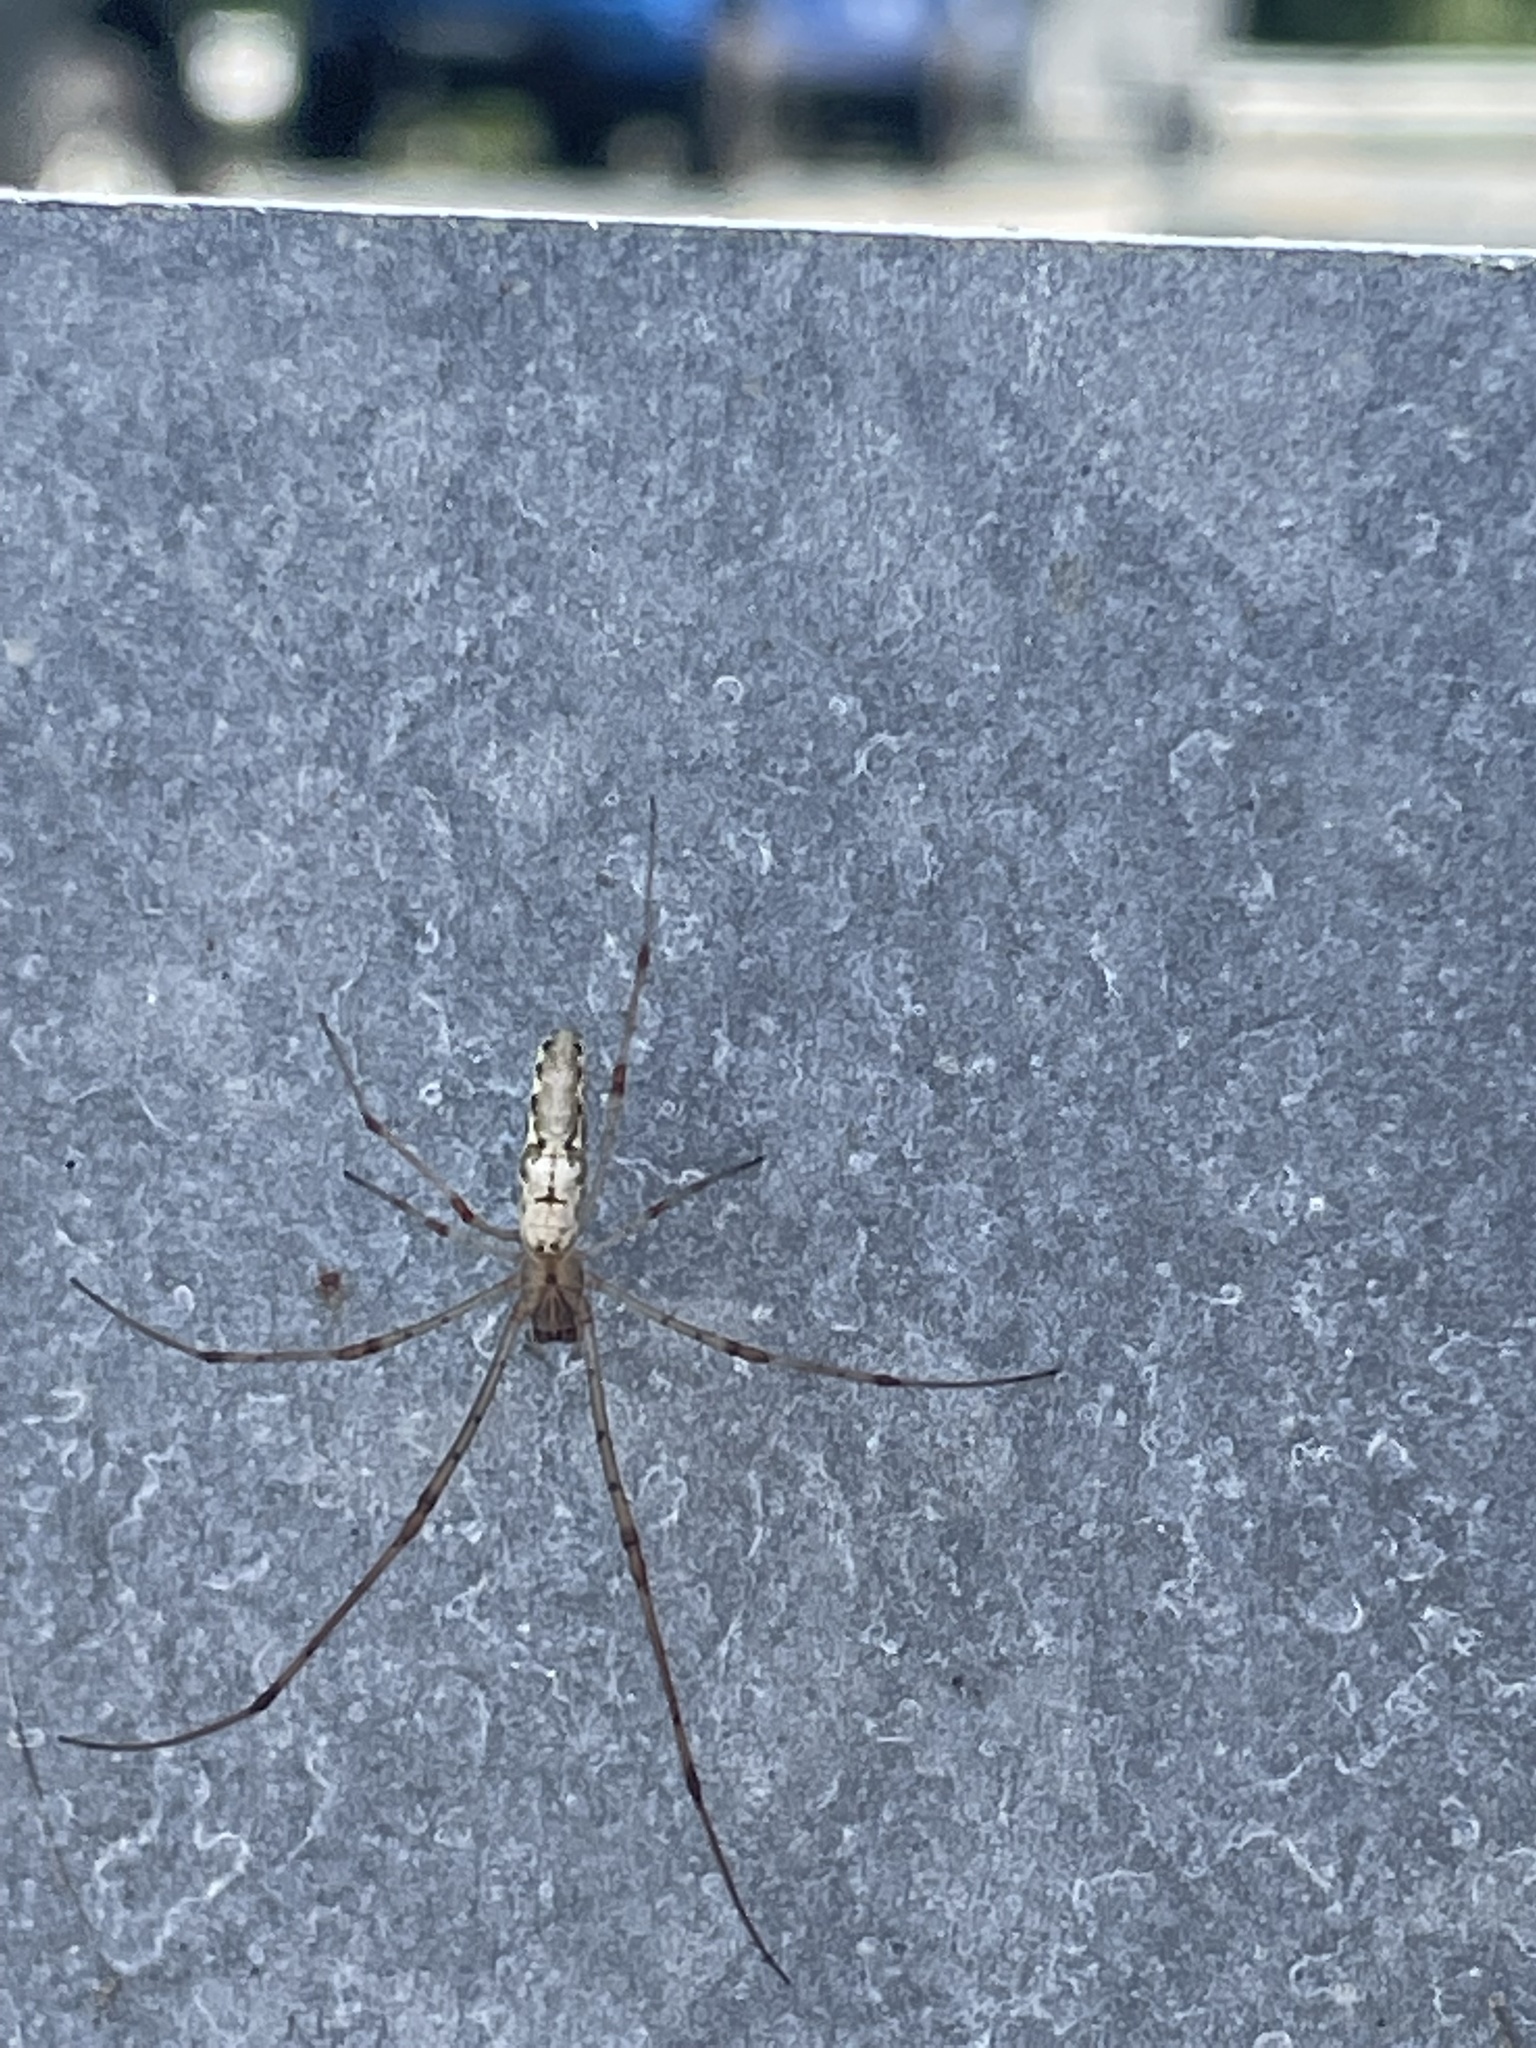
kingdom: Animalia
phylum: Arthropoda
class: Arachnida
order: Araneae
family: Tetragnathidae
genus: Tetragnatha
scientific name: Tetragnatha
